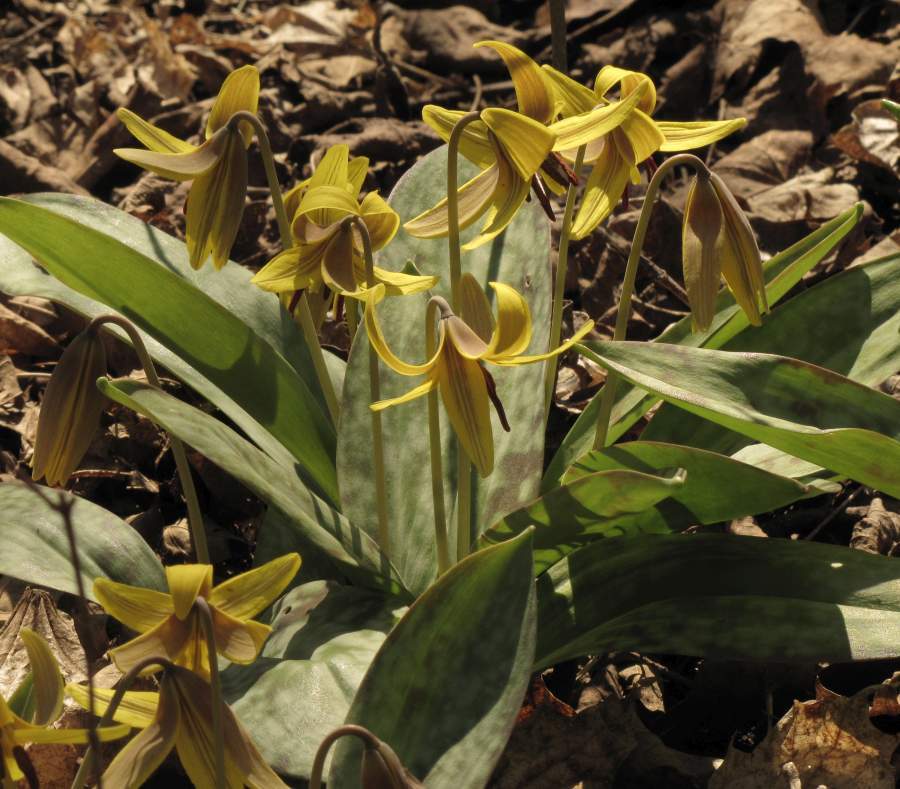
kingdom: Plantae
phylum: Tracheophyta
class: Liliopsida
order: Liliales
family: Liliaceae
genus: Erythronium
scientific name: Erythronium americanum
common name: Yellow adder's-tongue
